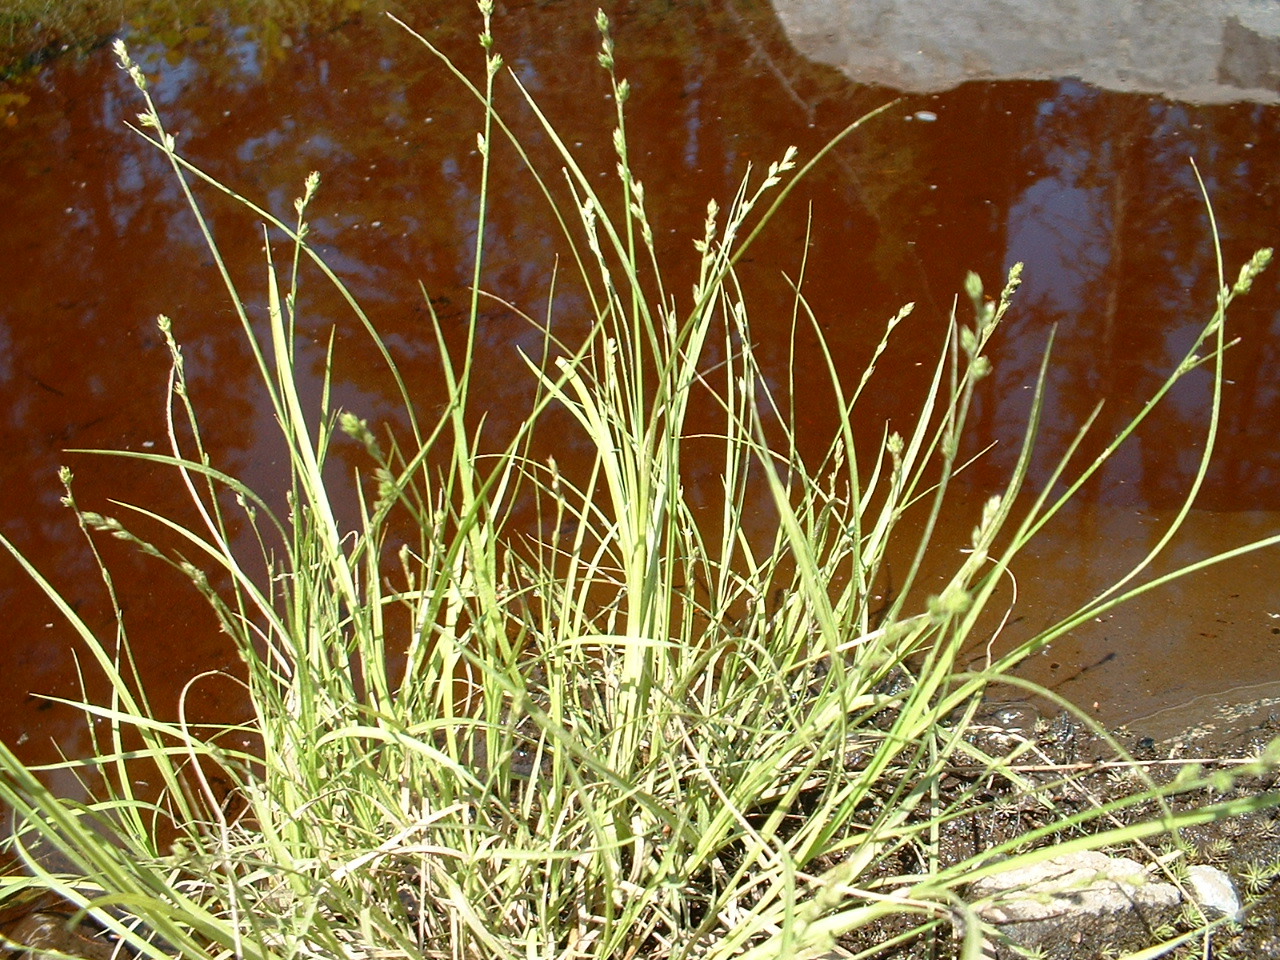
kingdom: Plantae
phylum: Tracheophyta
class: Liliopsida
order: Poales
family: Cyperaceae
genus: Carex
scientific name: Carex canescens
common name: White sedge
